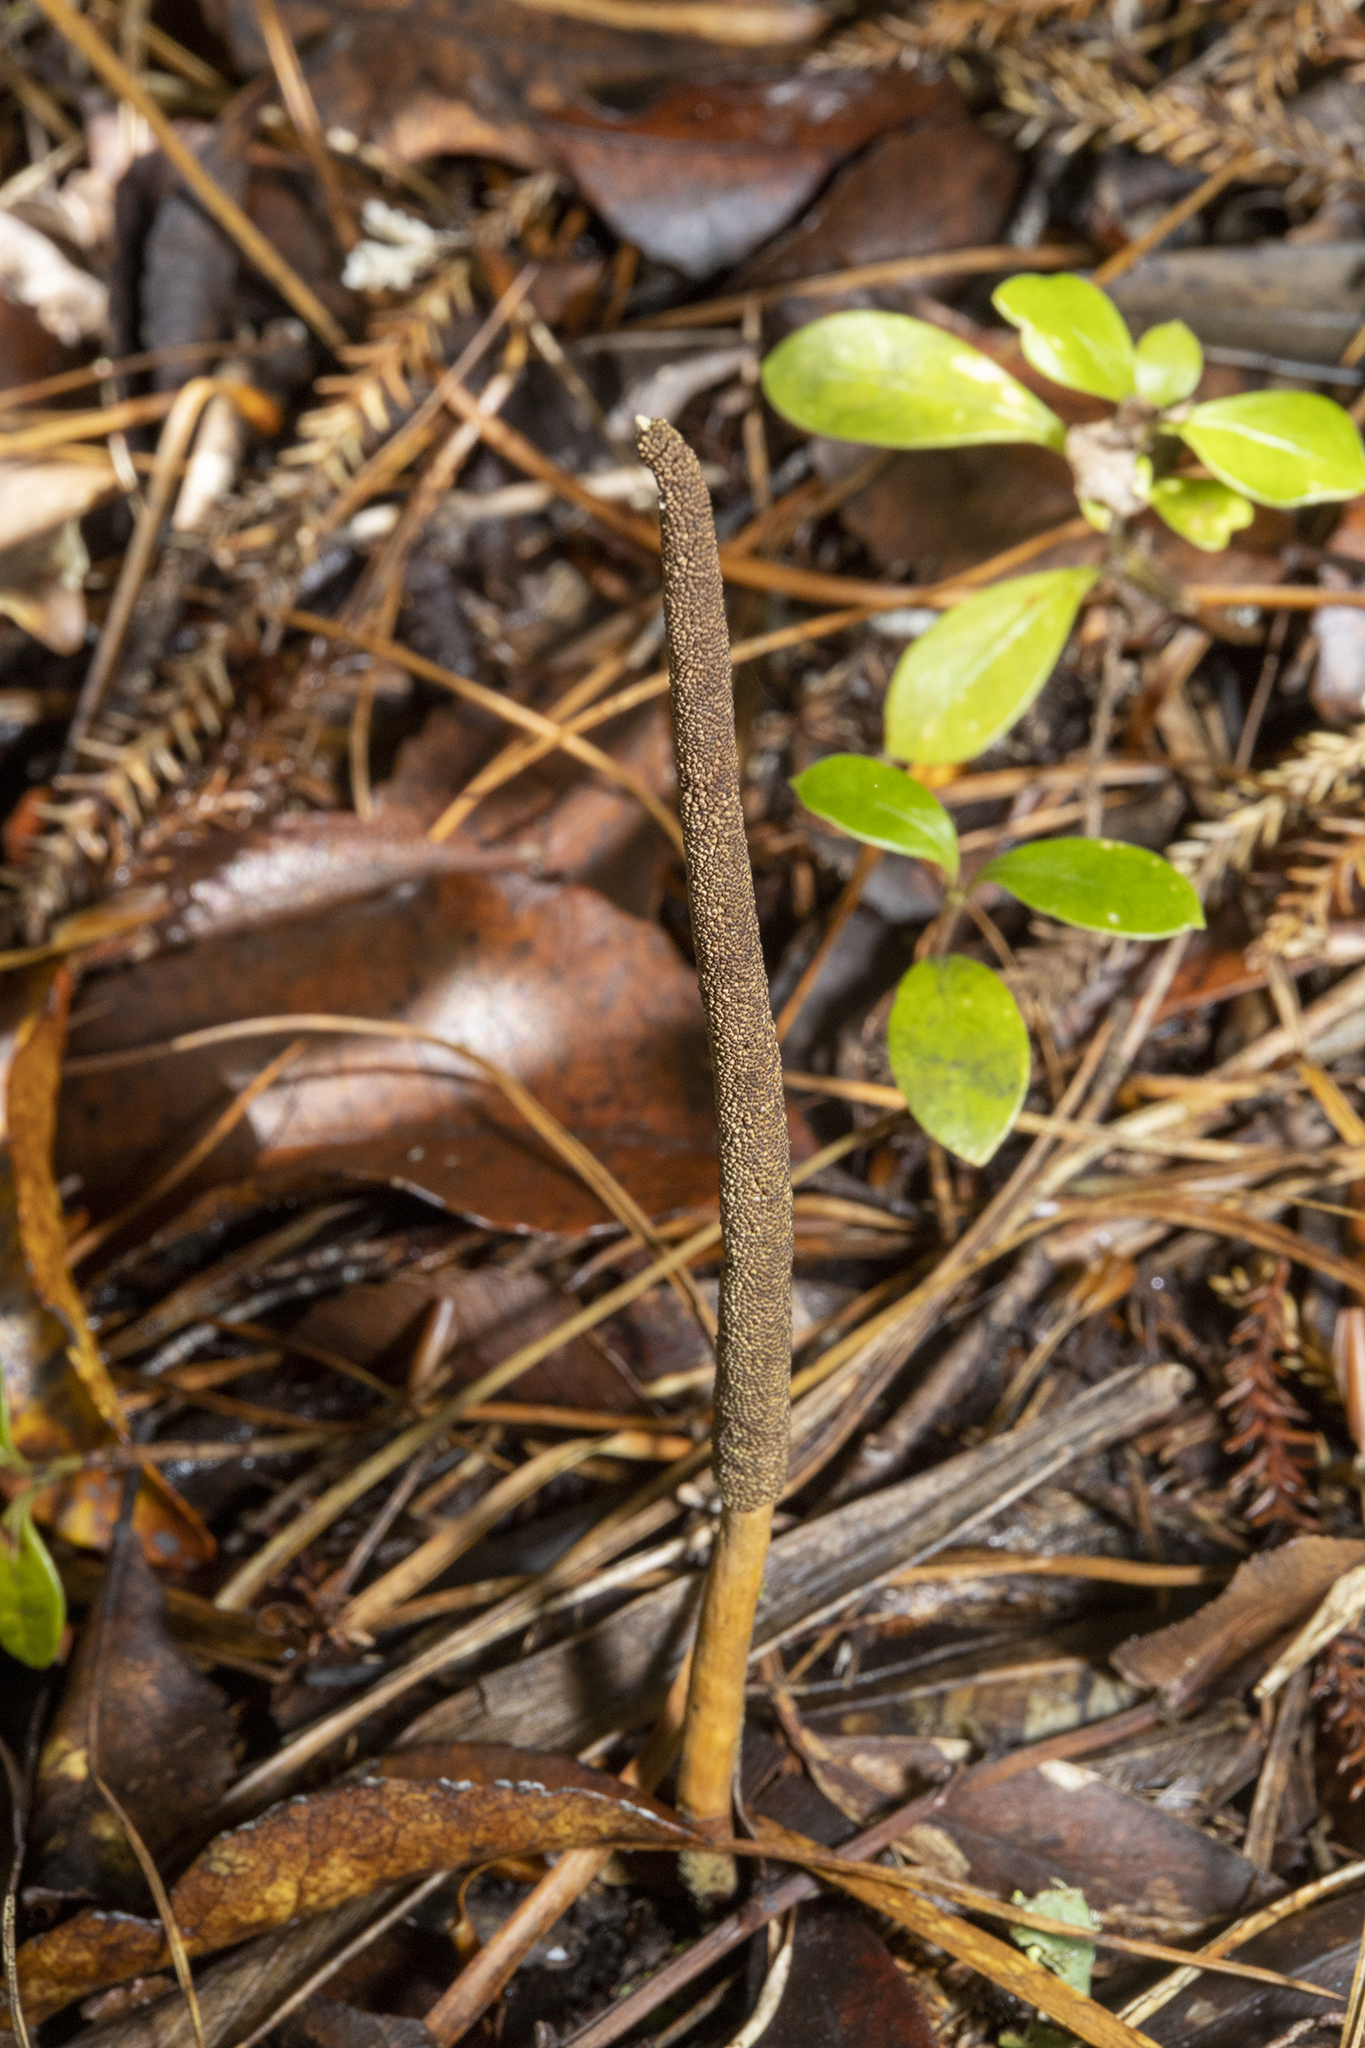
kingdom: Fungi
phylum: Ascomycota
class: Sordariomycetes
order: Hypocreales
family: Ophiocordycipitaceae
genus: Ophiocordyceps
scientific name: Ophiocordyceps robertsii
